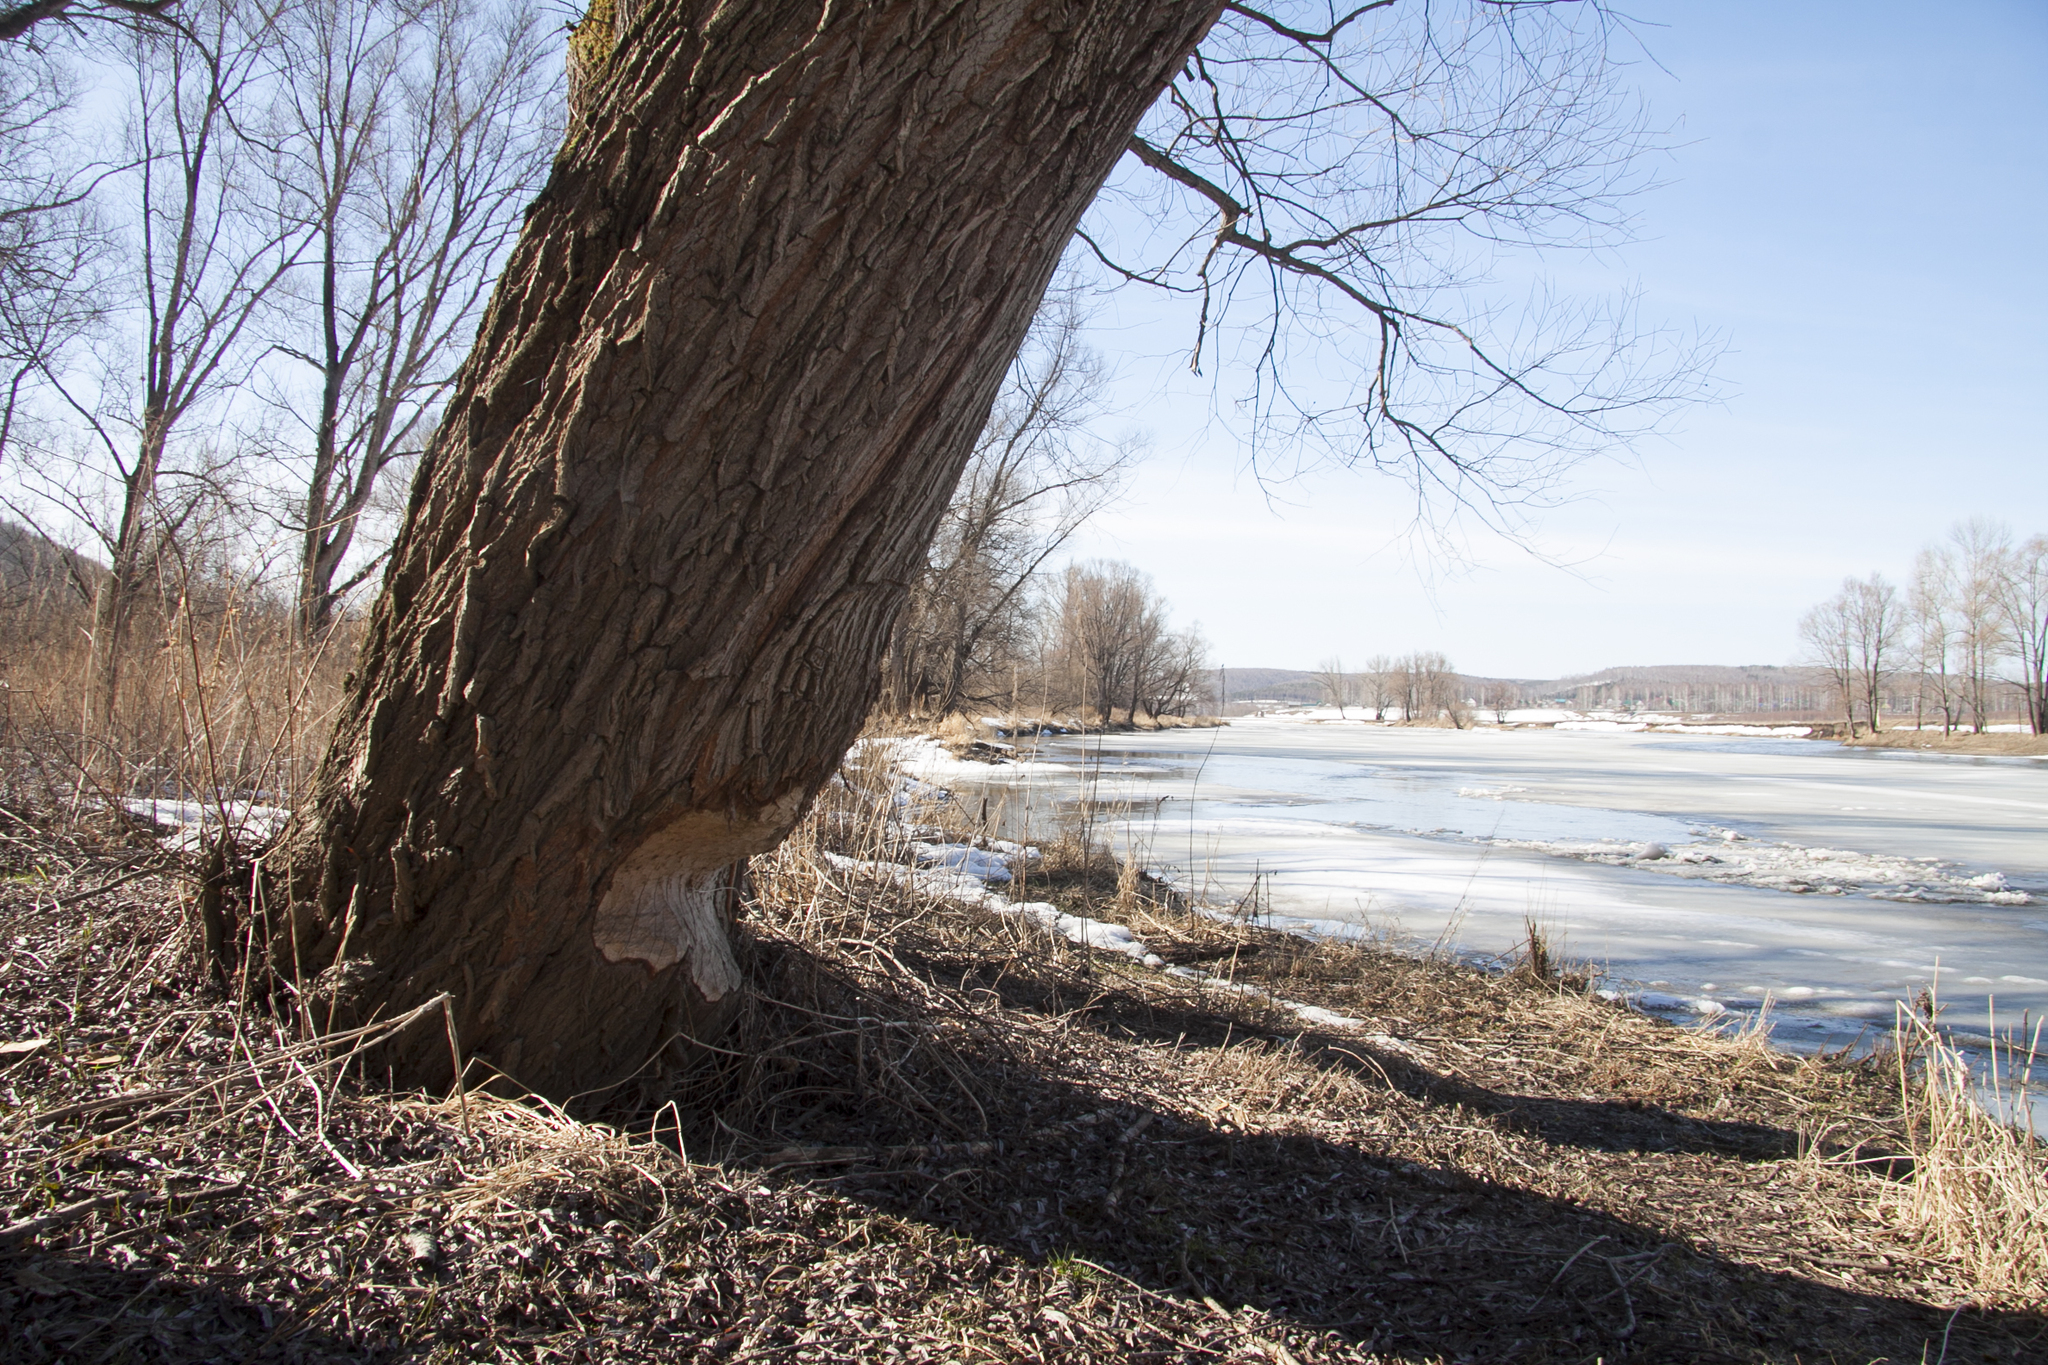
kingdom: Animalia
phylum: Chordata
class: Mammalia
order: Rodentia
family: Castoridae
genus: Castor
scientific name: Castor fiber
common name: Eurasian beaver
